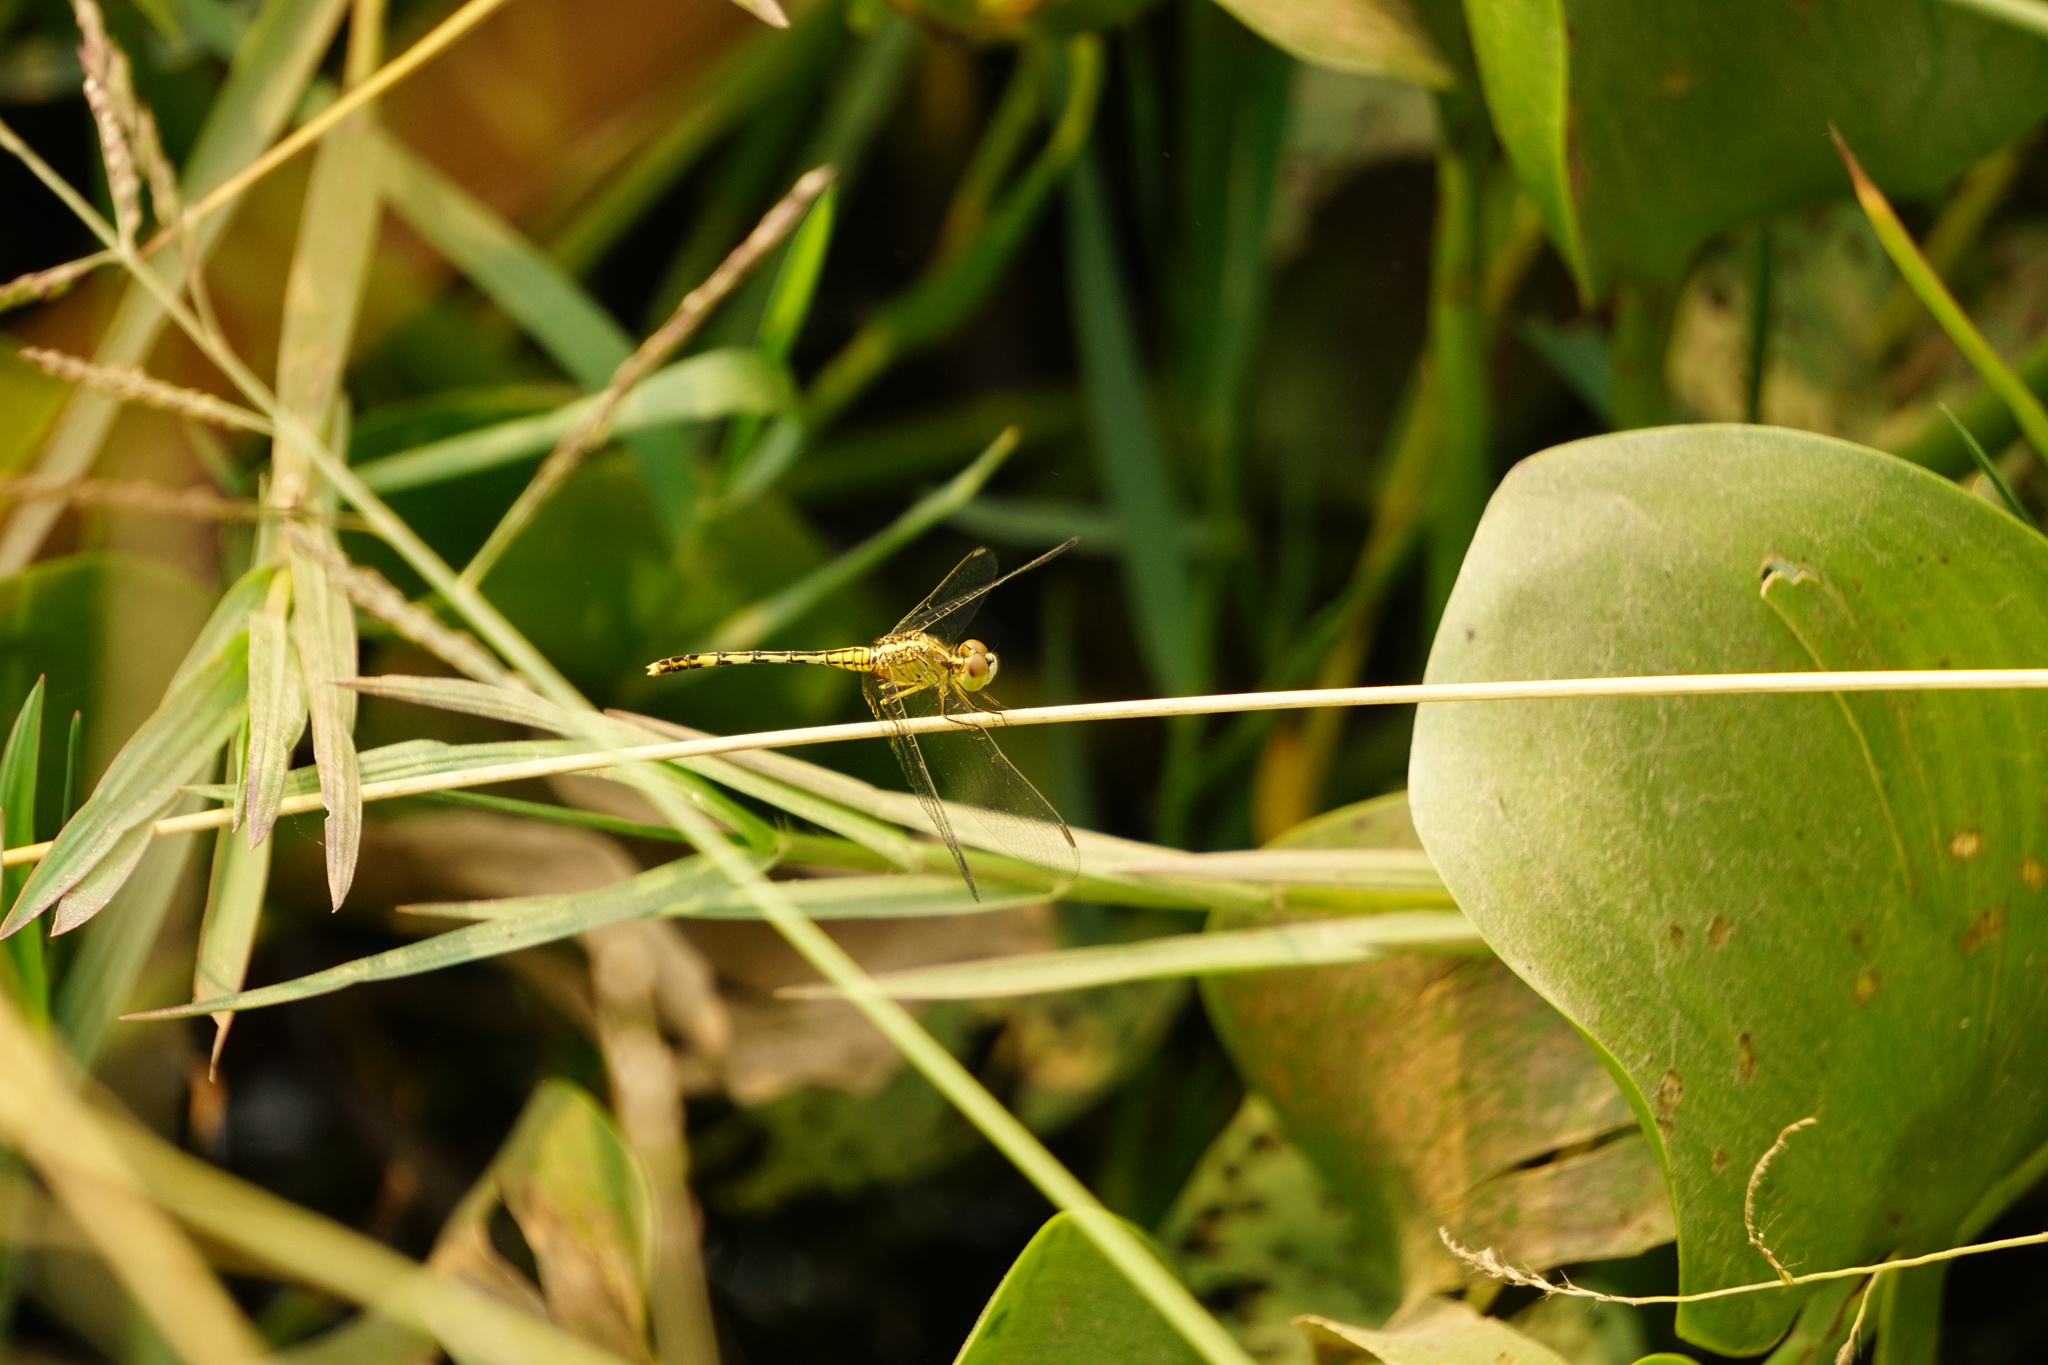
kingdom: Animalia
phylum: Arthropoda
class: Insecta
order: Odonata
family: Libellulidae
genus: Diplacodes
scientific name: Diplacodes trivialis
